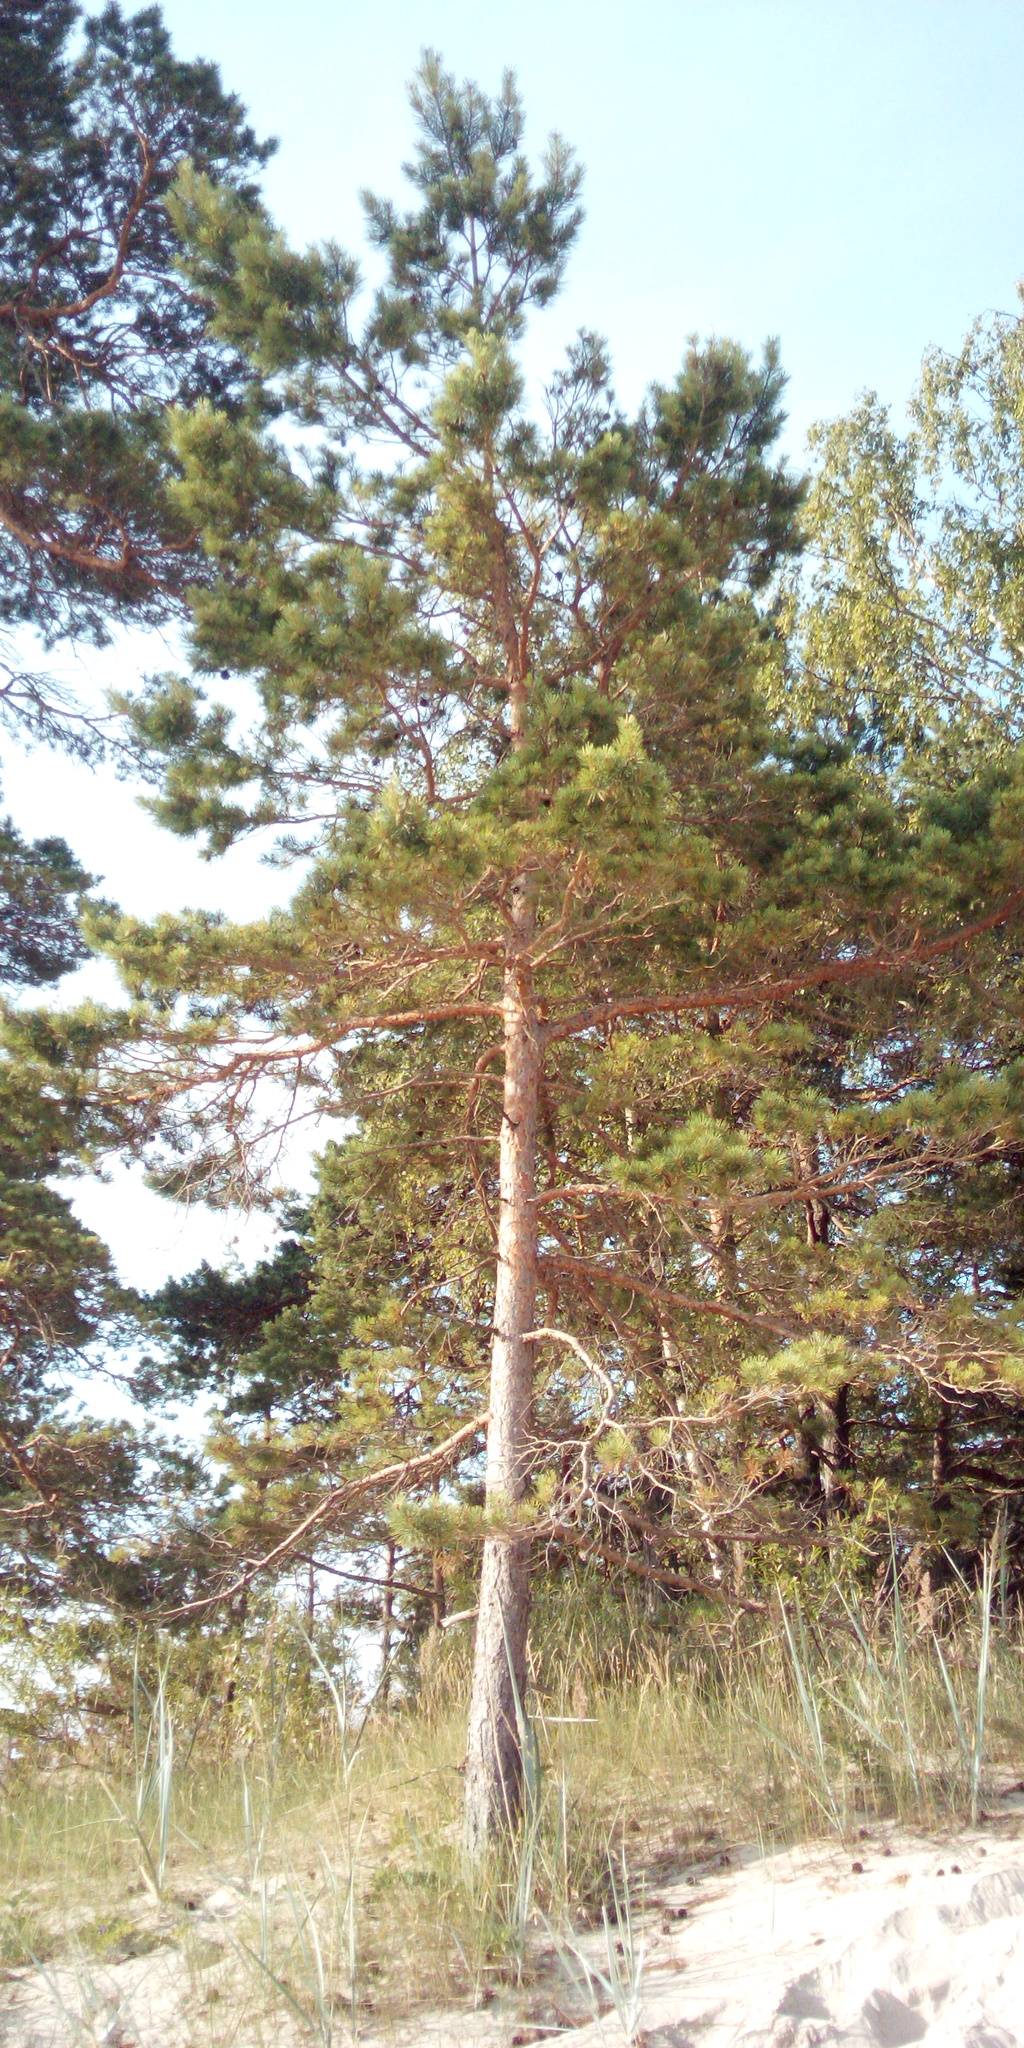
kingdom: Plantae
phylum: Tracheophyta
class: Pinopsida
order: Pinales
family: Pinaceae
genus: Pinus
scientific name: Pinus sylvestris
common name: Scots pine
